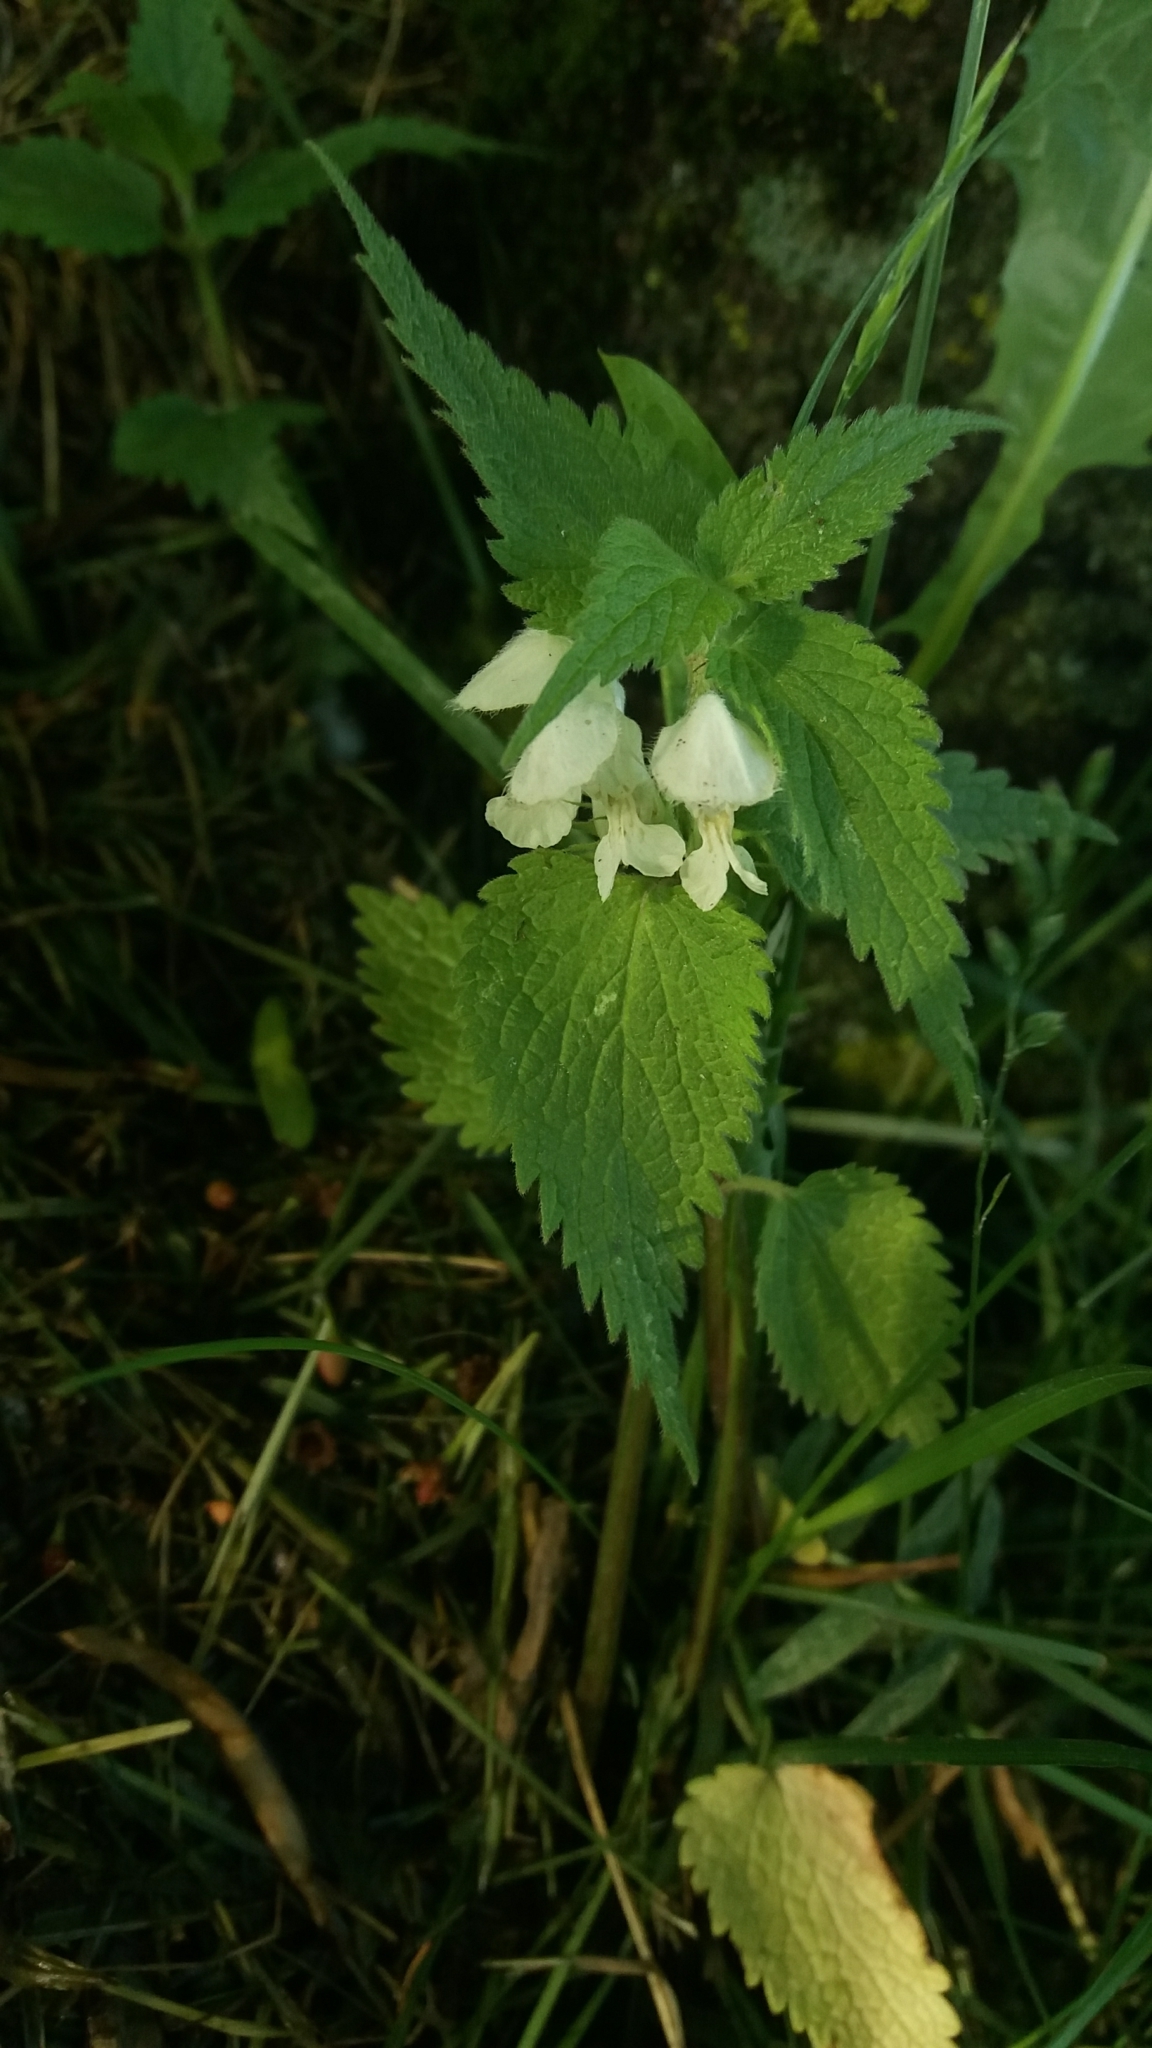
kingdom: Plantae
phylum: Tracheophyta
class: Magnoliopsida
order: Lamiales
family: Lamiaceae
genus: Lamium
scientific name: Lamium album
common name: White dead-nettle
